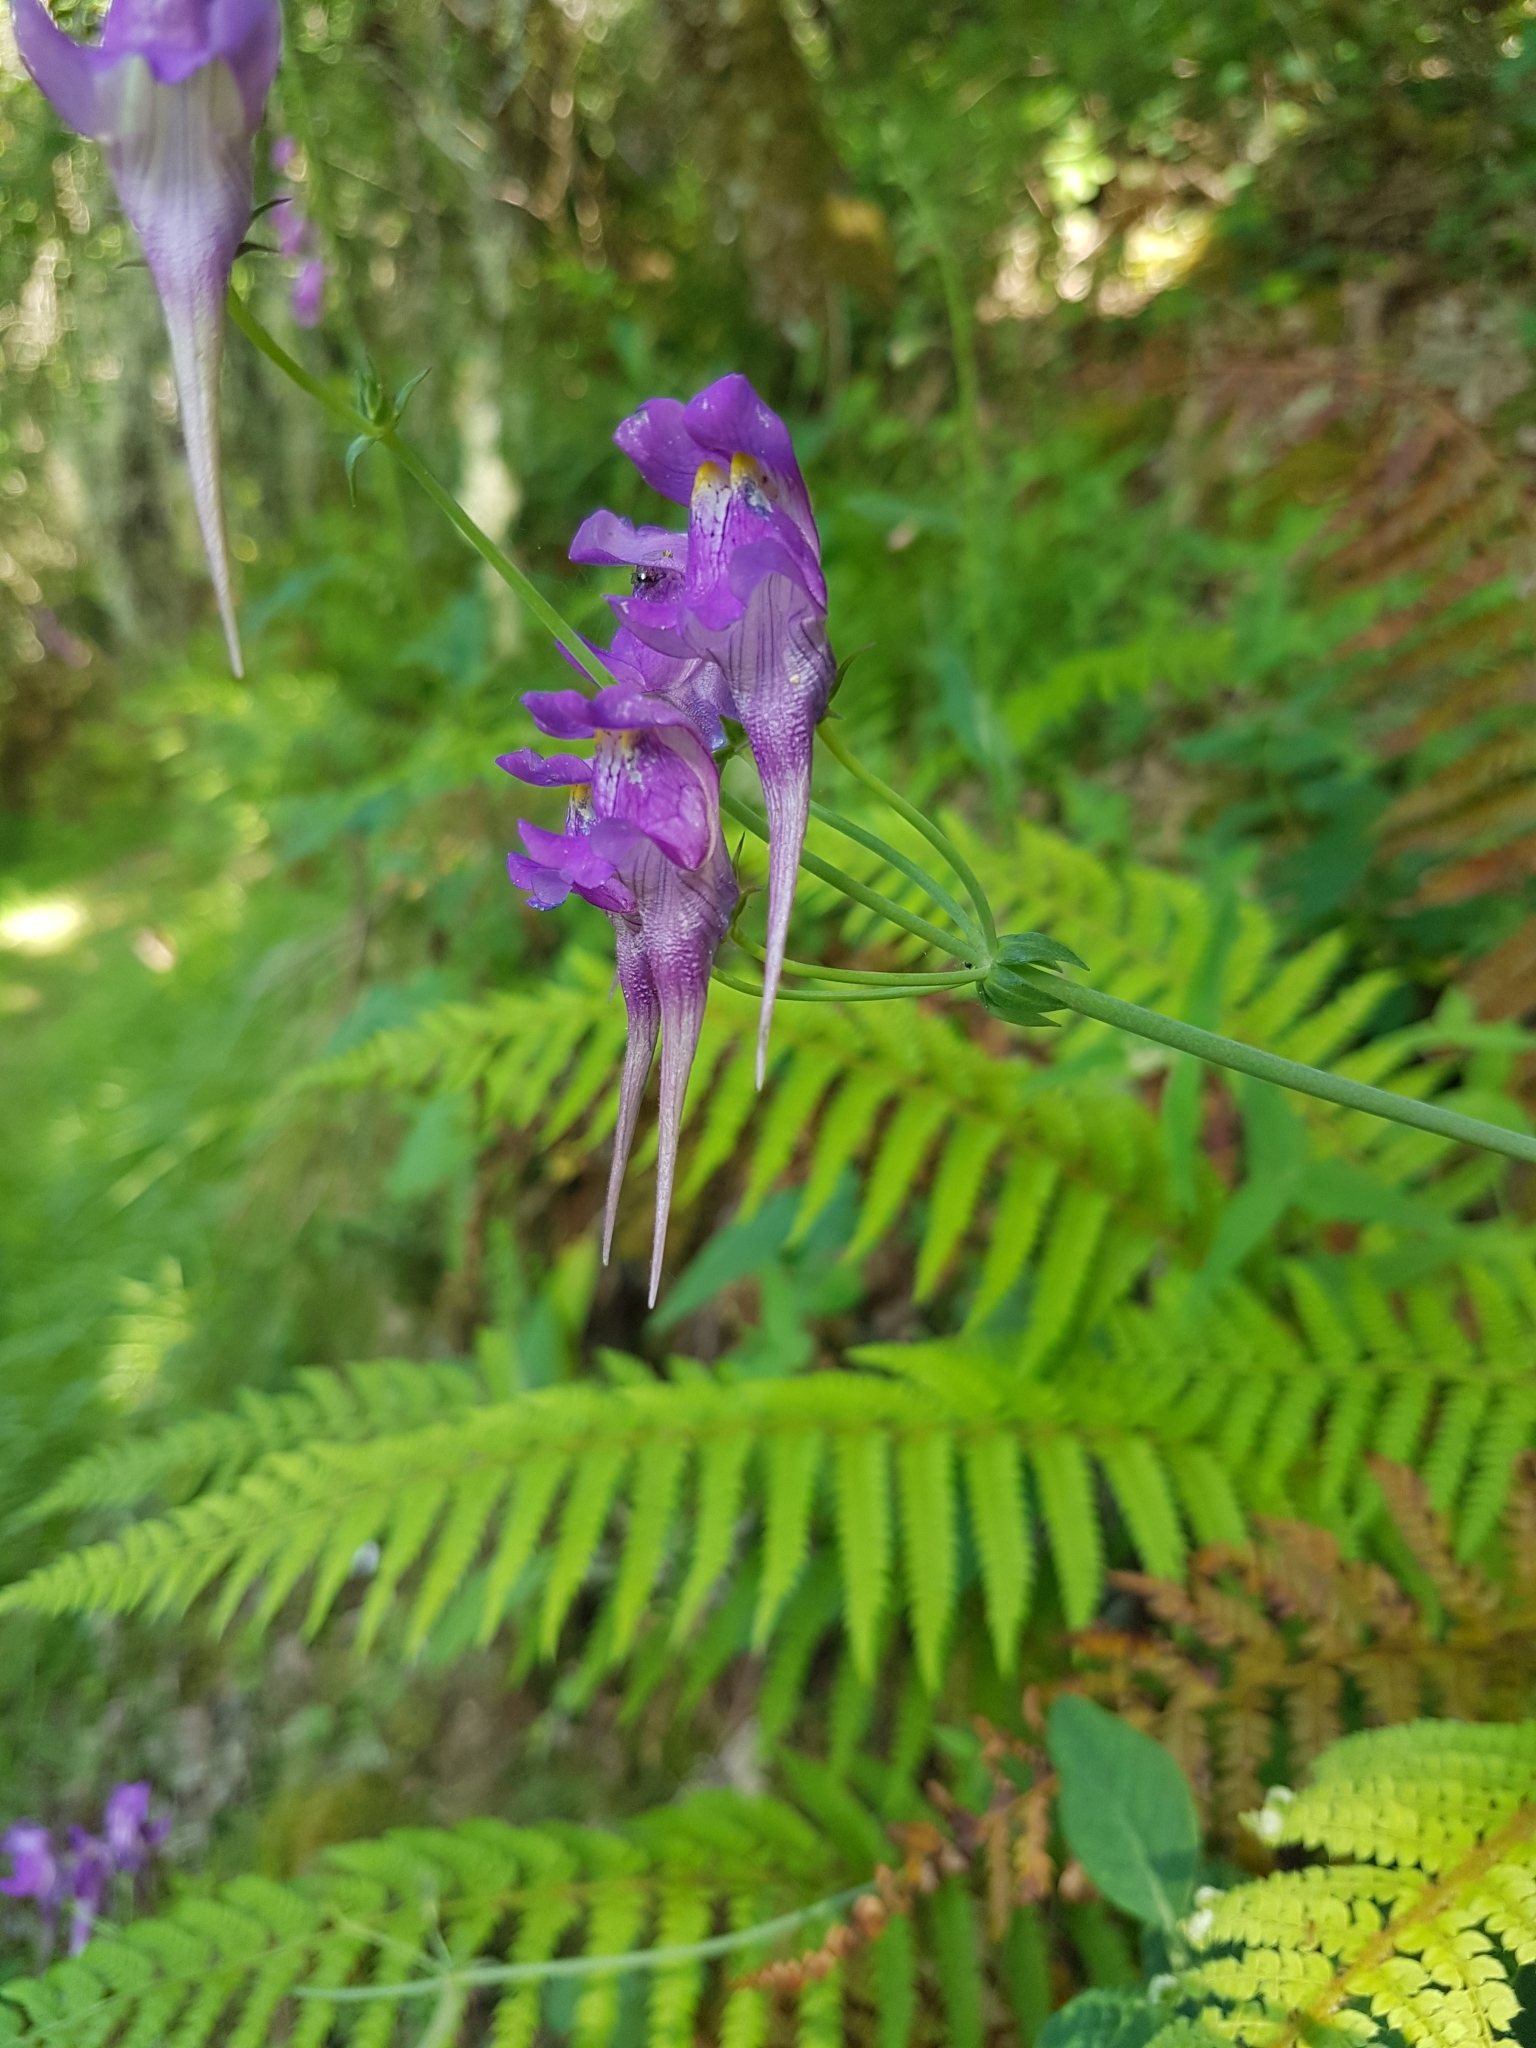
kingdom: Plantae
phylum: Tracheophyta
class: Magnoliopsida
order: Lamiales
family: Plantaginaceae
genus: Linaria
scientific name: Linaria triornithophora
